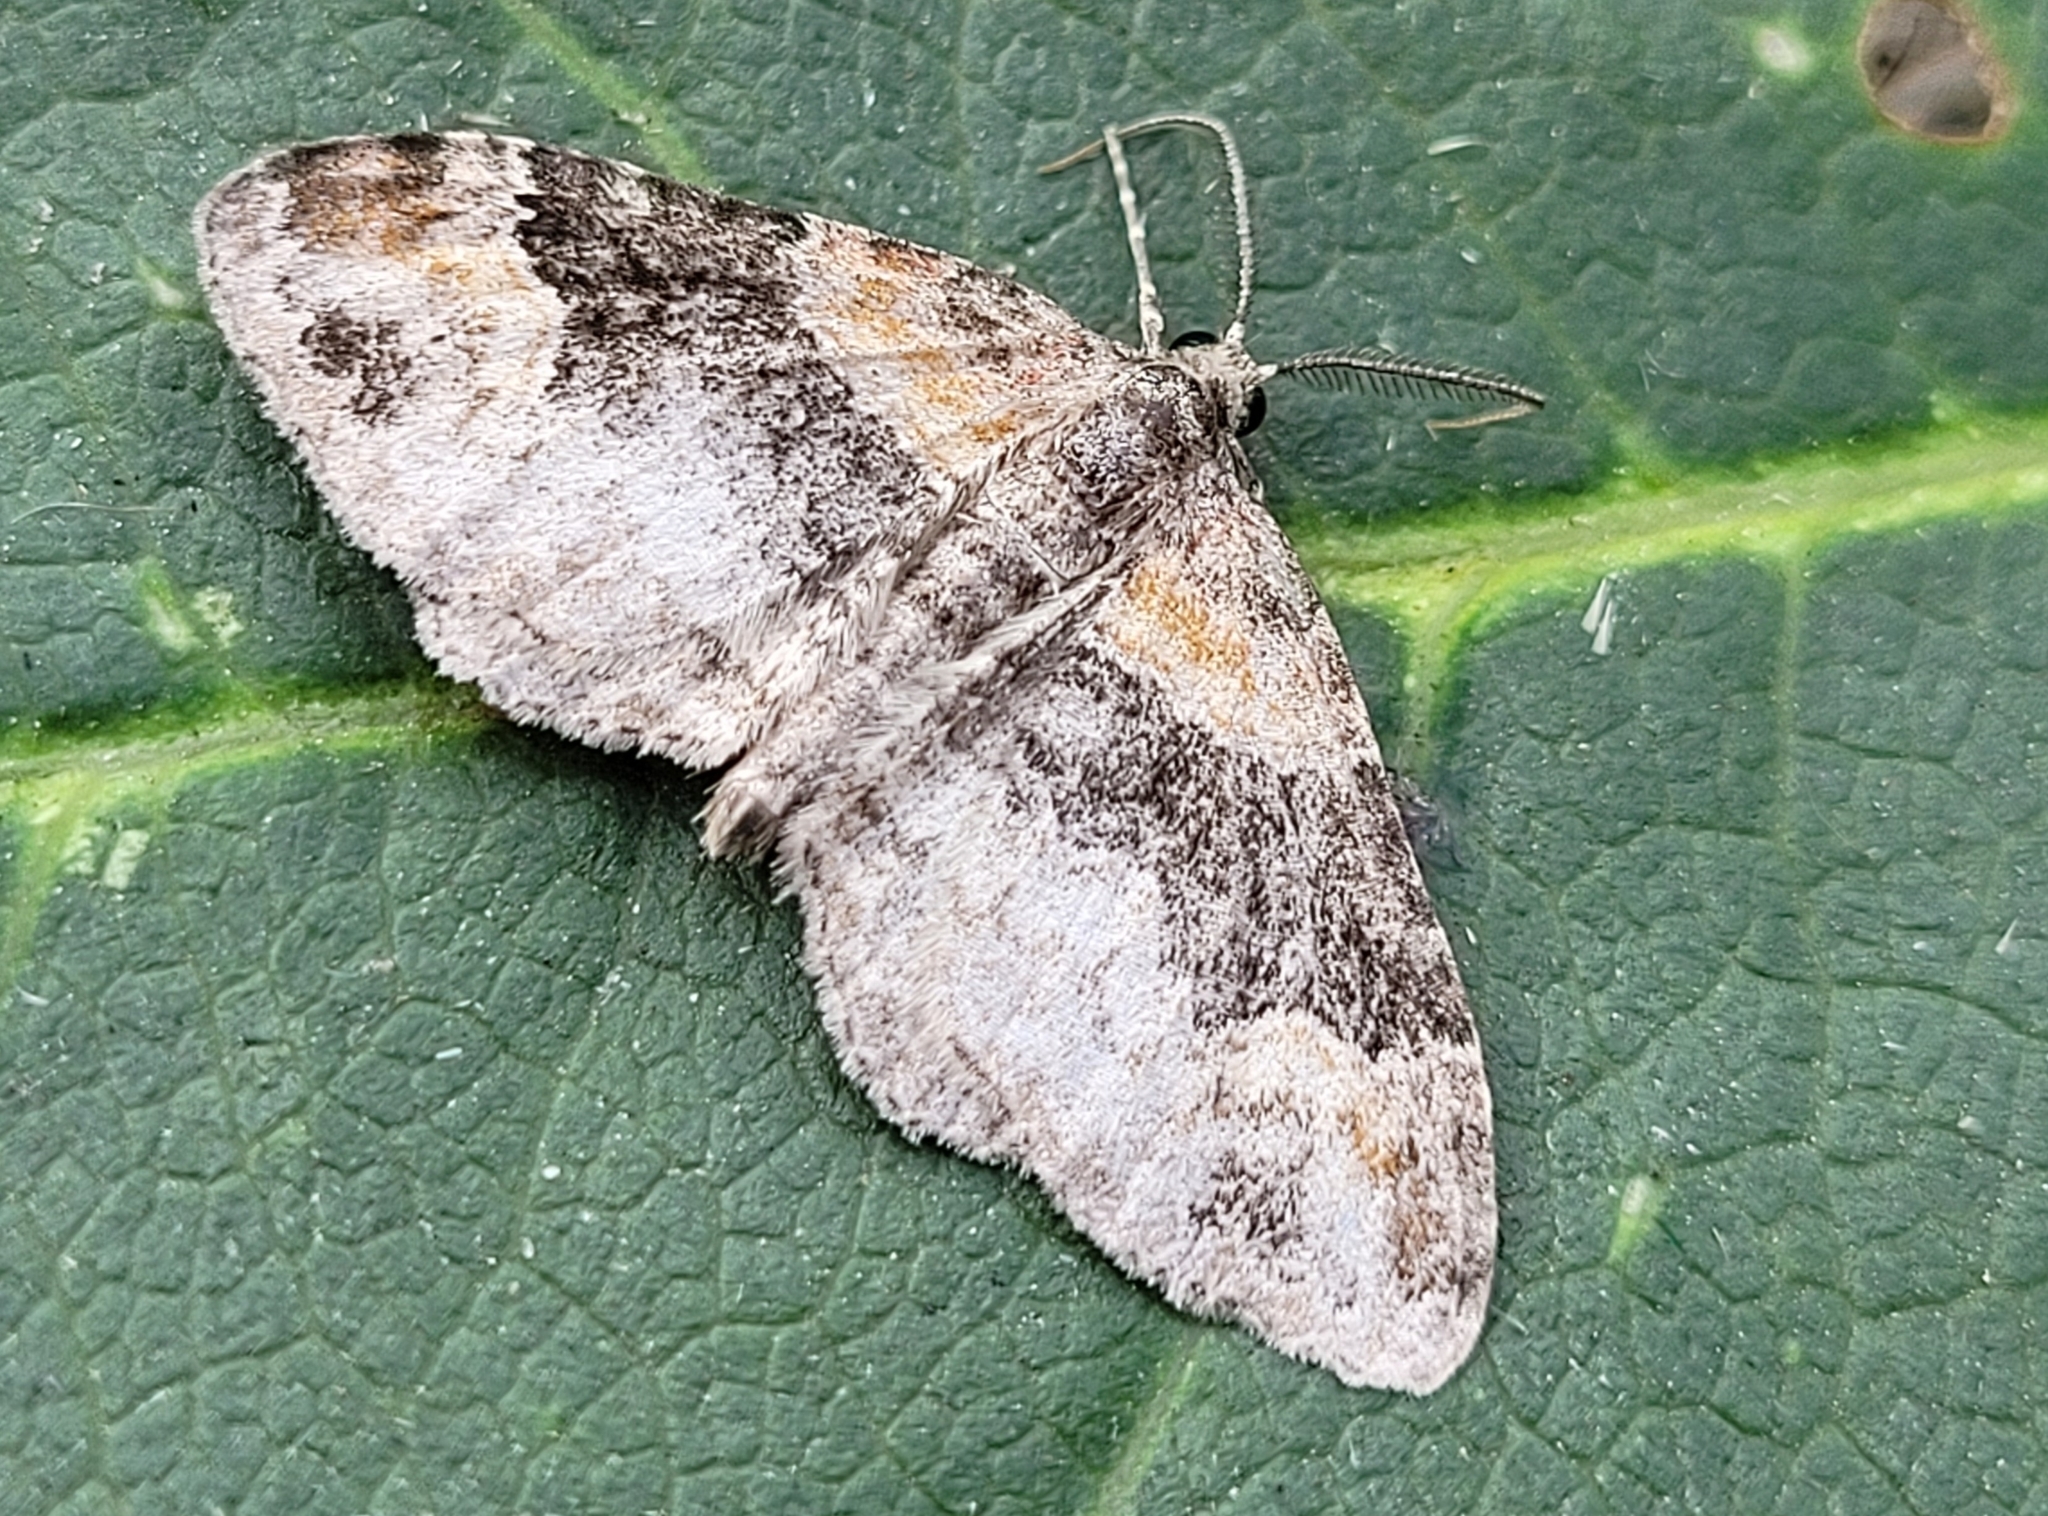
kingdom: Animalia
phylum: Arthropoda
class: Insecta
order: Lepidoptera
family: Geometridae
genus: Xanthorhoe
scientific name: Xanthorhoe ferrugata
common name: Dark-barred twin-spot carpet
